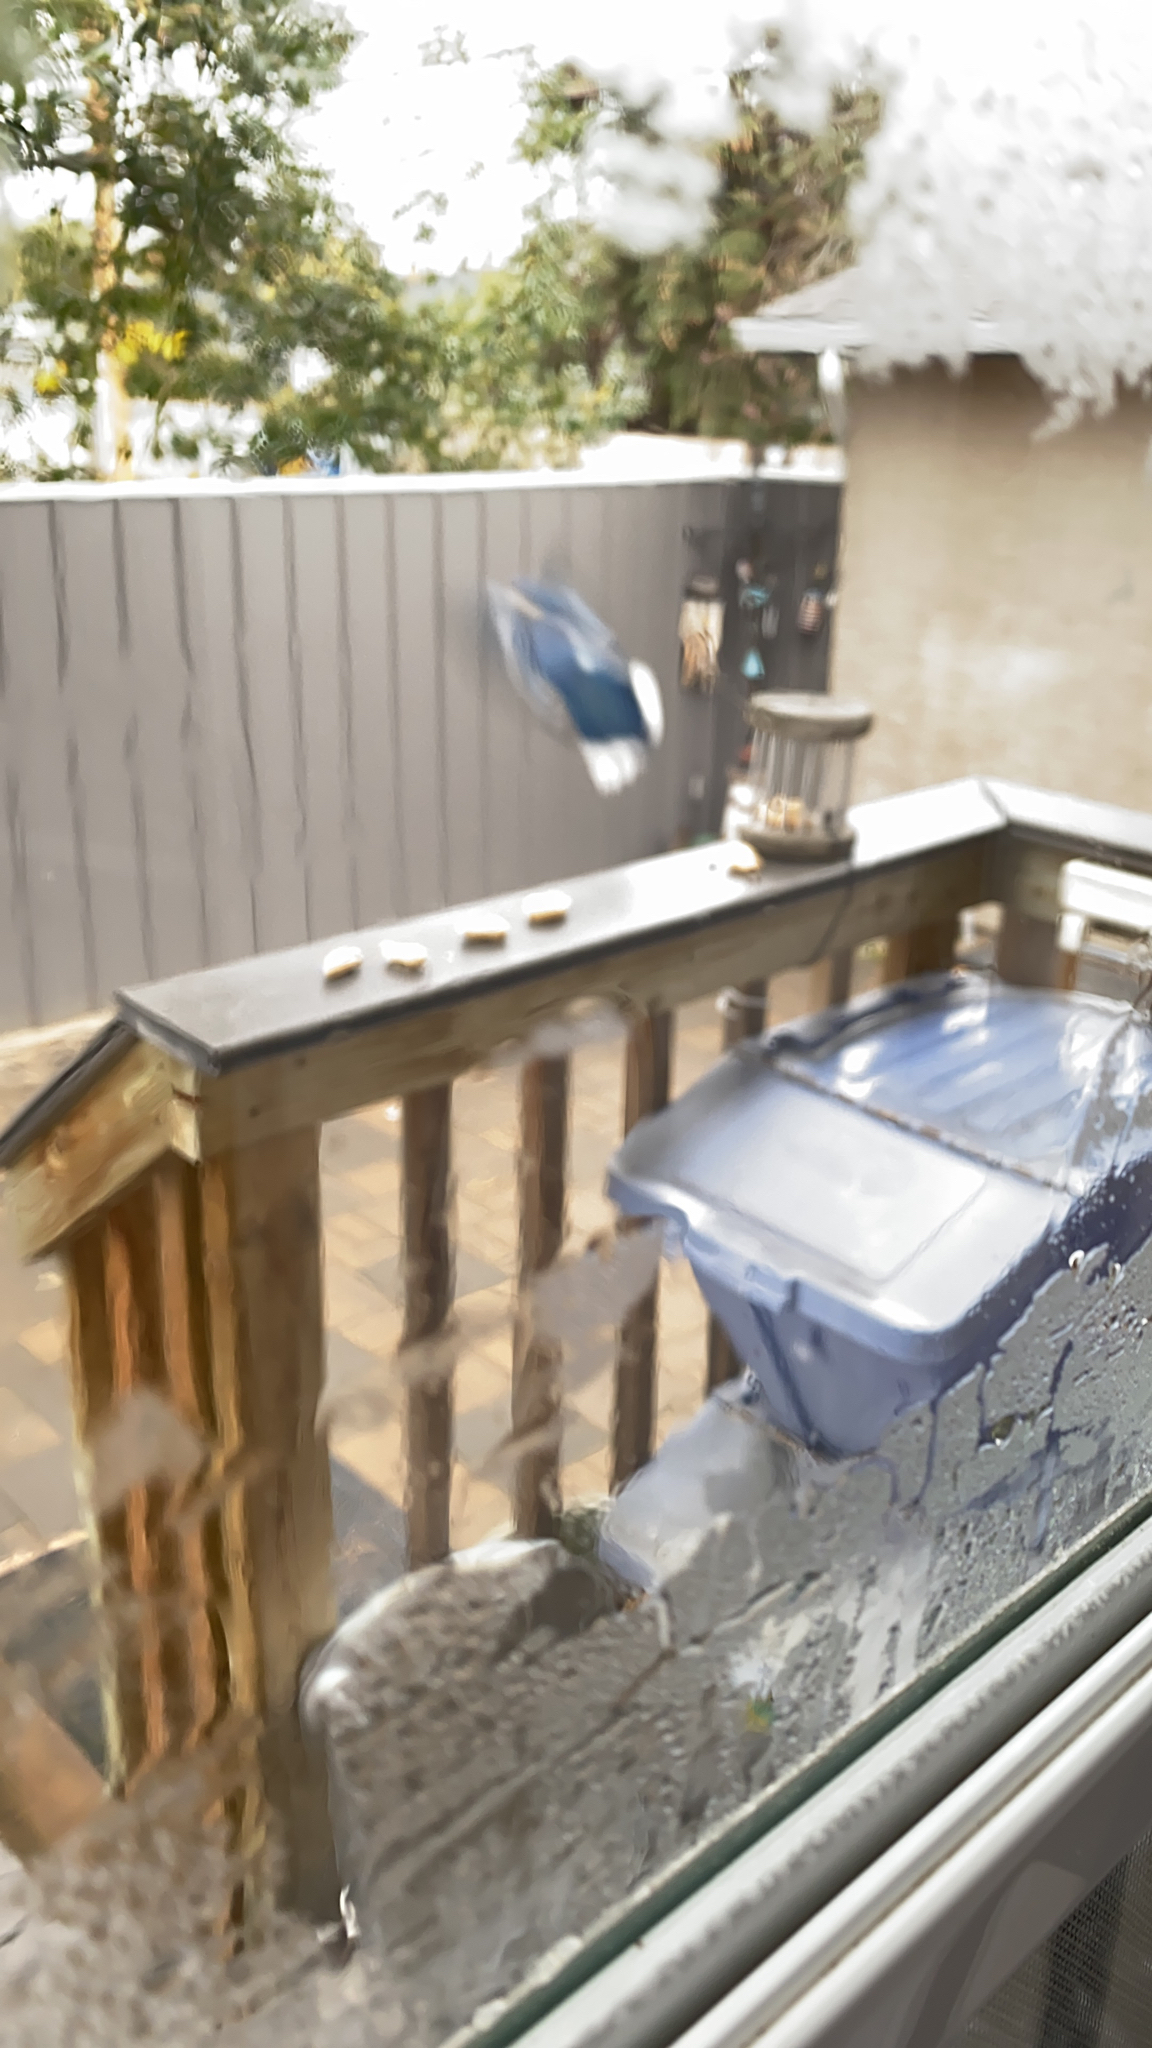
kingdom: Animalia
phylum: Chordata
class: Aves
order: Passeriformes
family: Corvidae
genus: Cyanocitta
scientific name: Cyanocitta cristata
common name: Blue jay
